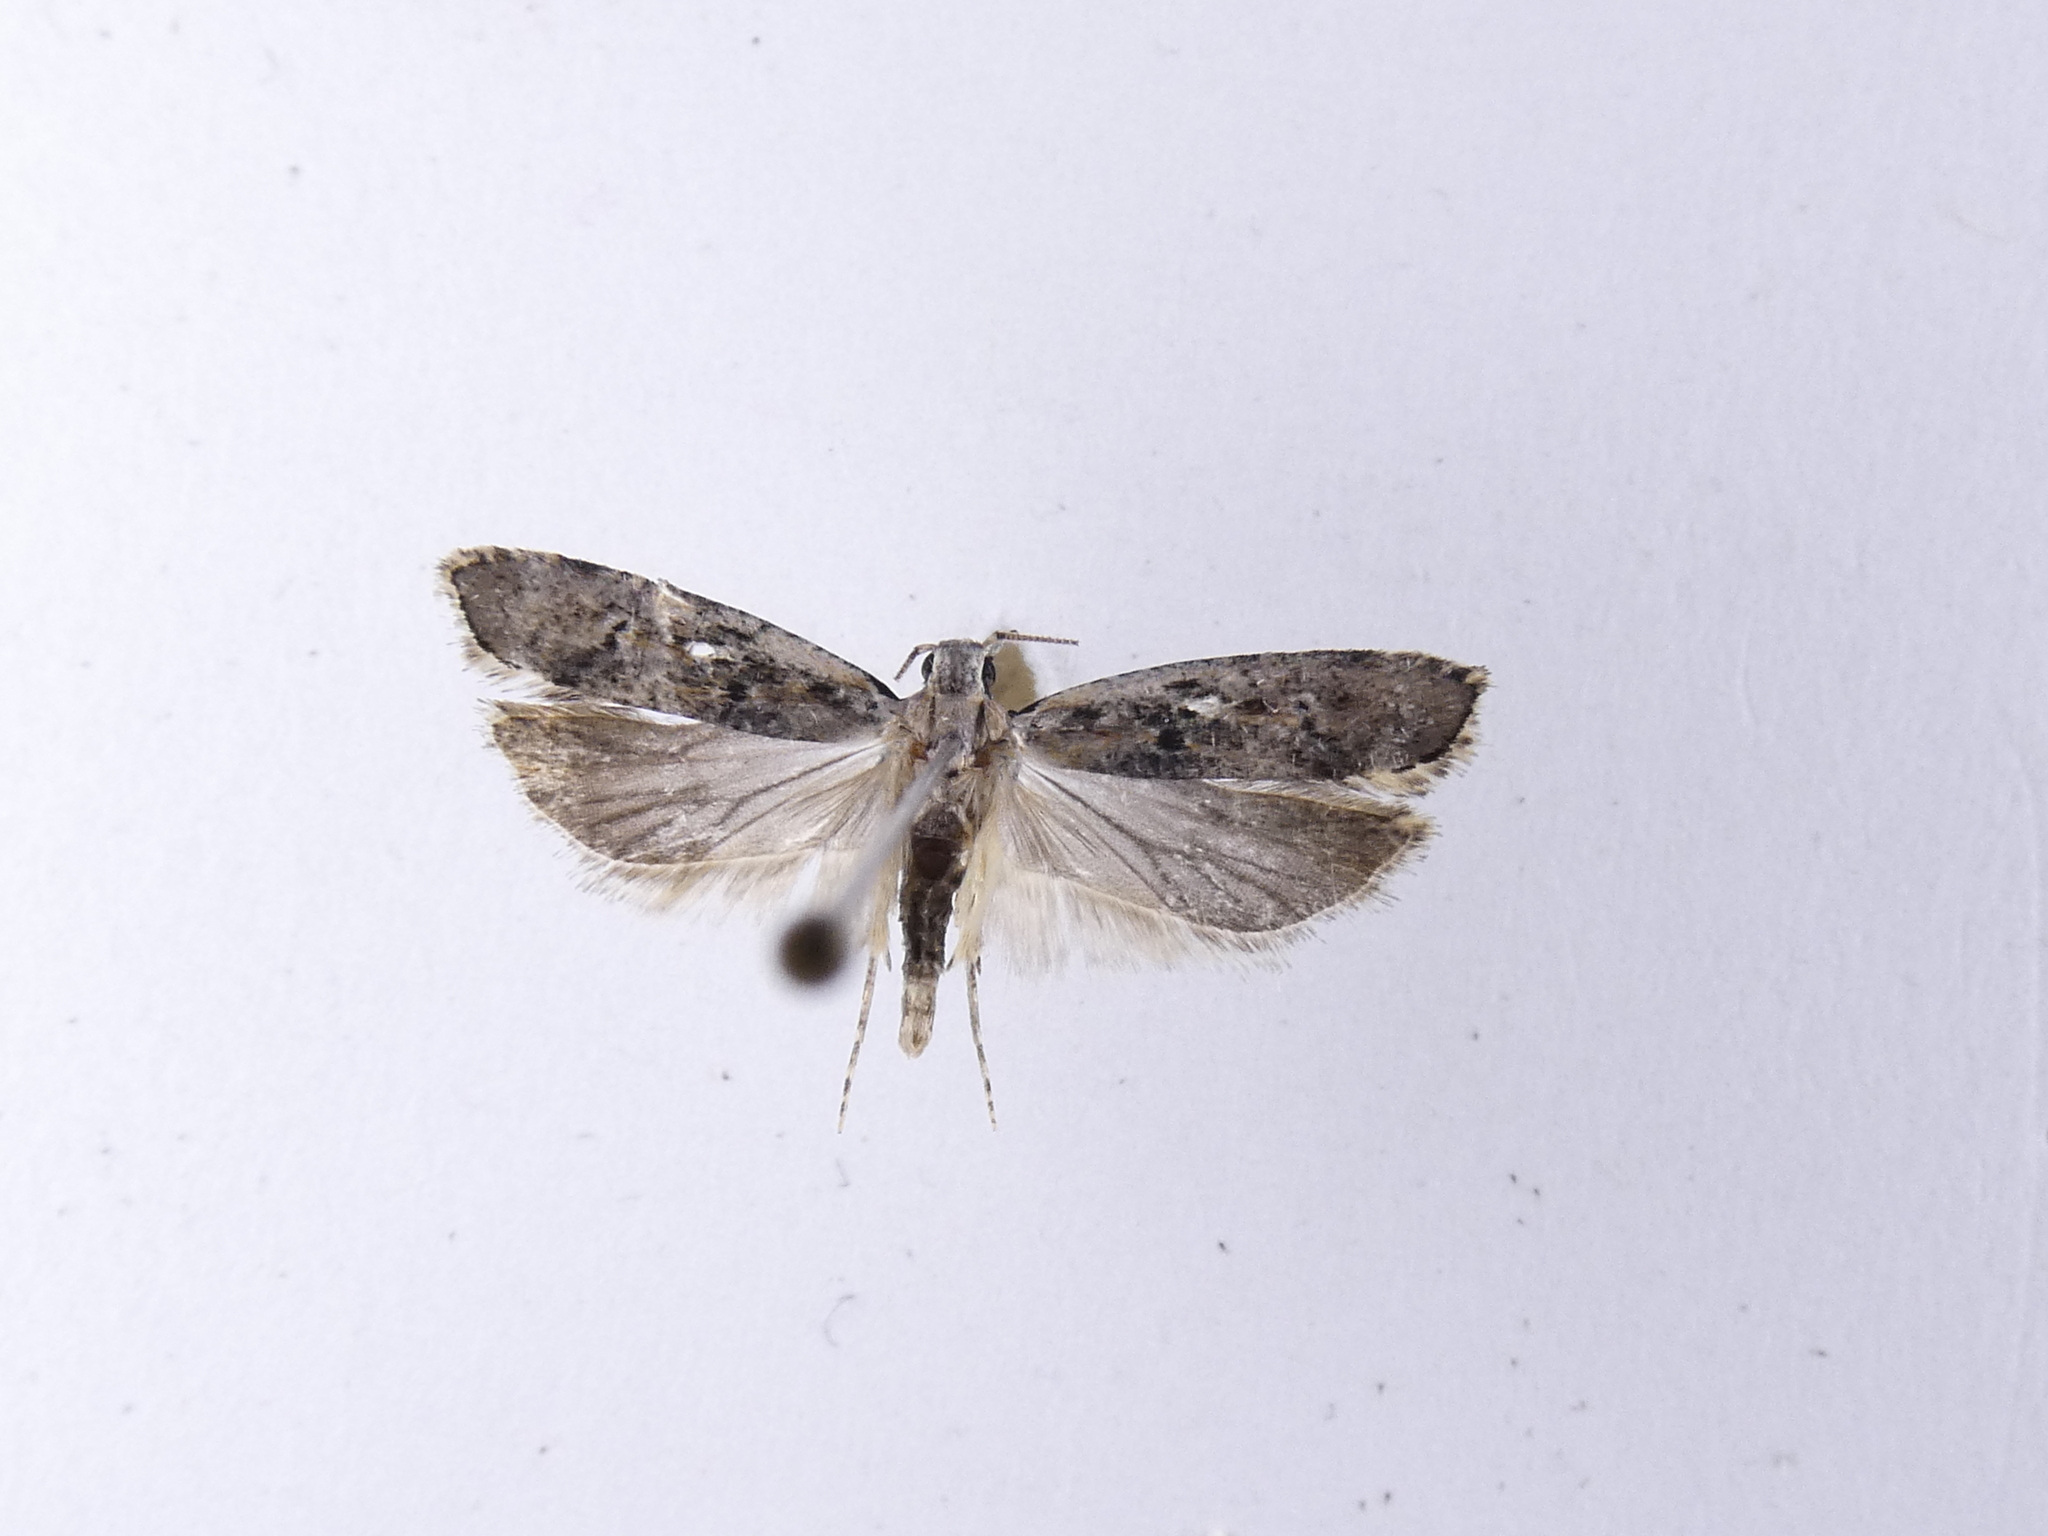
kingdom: Animalia
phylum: Arthropoda
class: Insecta
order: Lepidoptera
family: Gelechiidae
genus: Anisoplaca
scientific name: Anisoplaca achyrota
